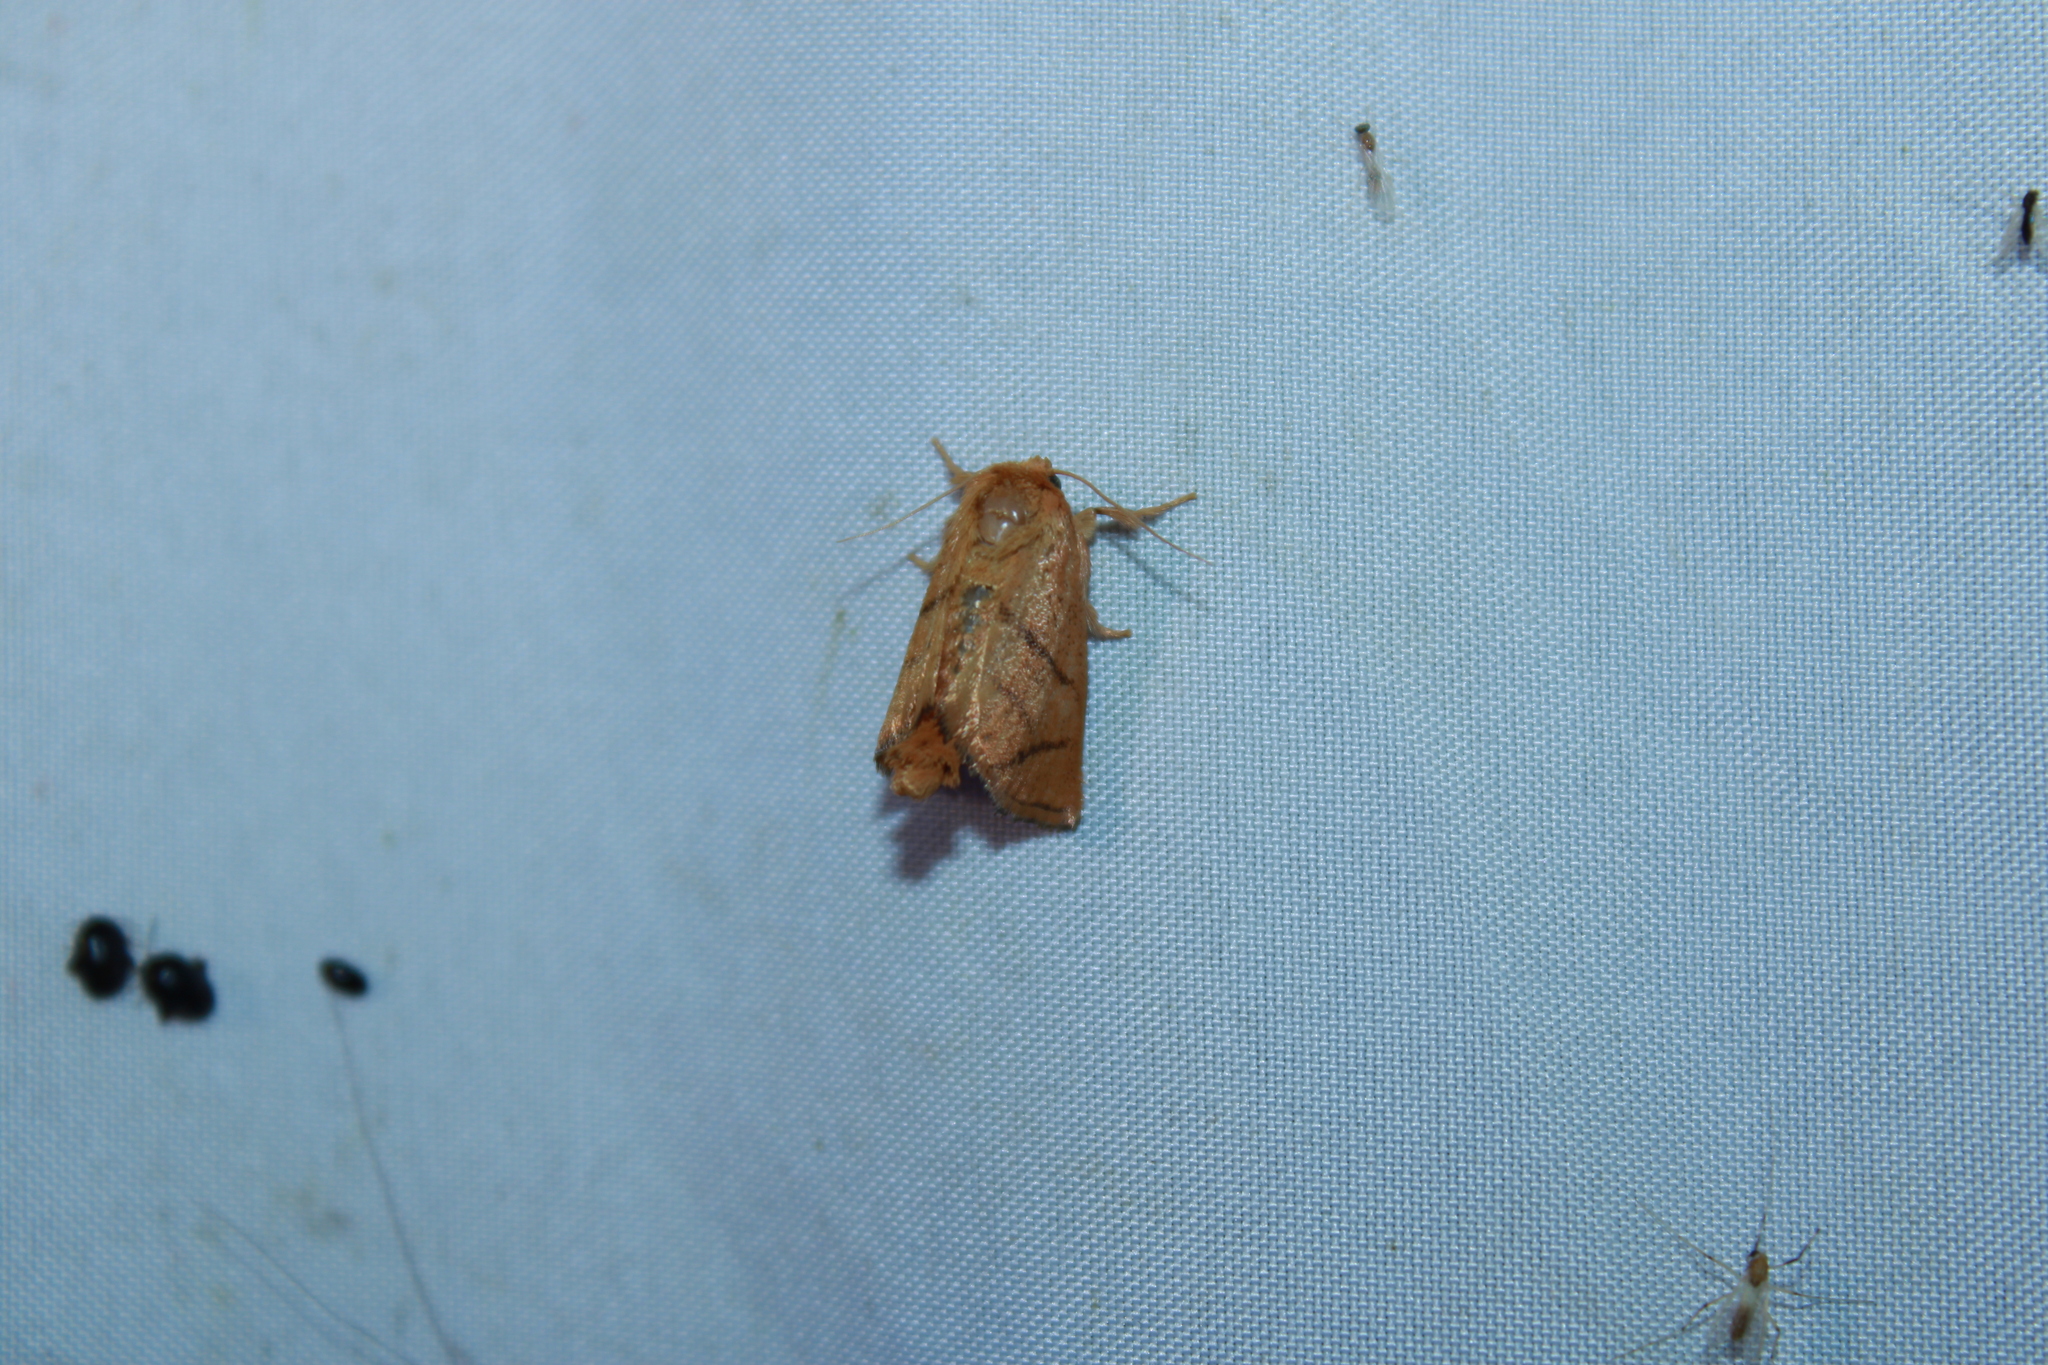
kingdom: Animalia
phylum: Arthropoda
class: Insecta
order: Lepidoptera
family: Limacodidae
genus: Apoda
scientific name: Apoda y-inversa
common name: Yellow-collared slug moth
